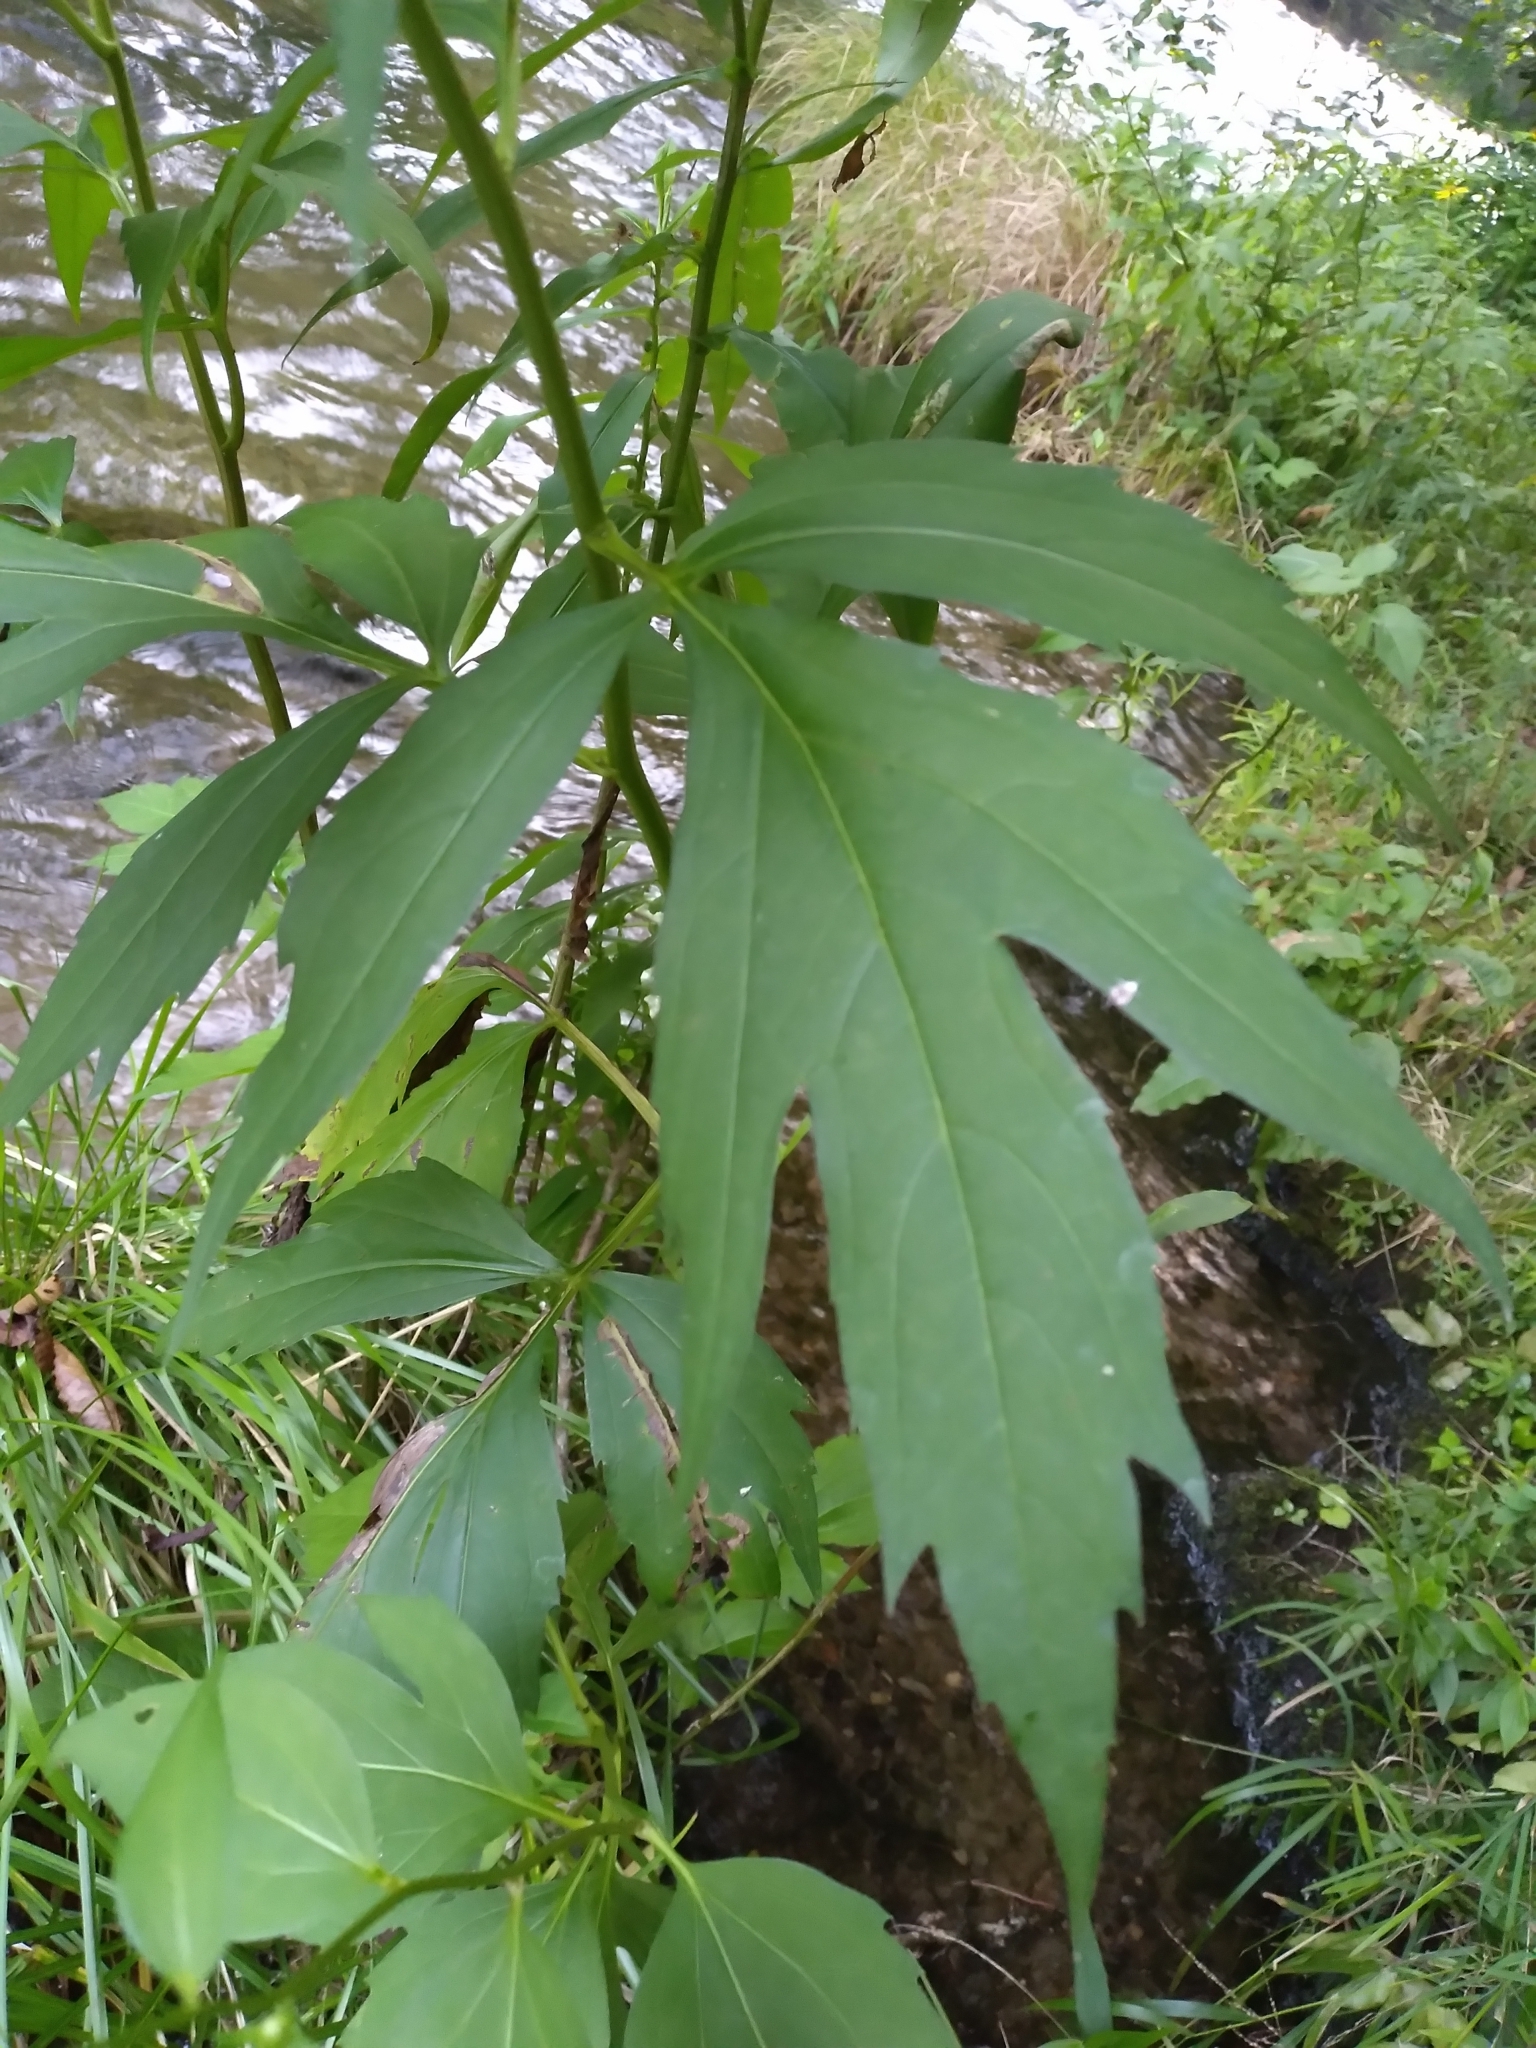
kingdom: Plantae
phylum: Tracheophyta
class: Magnoliopsida
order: Asterales
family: Asteraceae
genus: Rudbeckia
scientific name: Rudbeckia laciniata
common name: Coneflower
